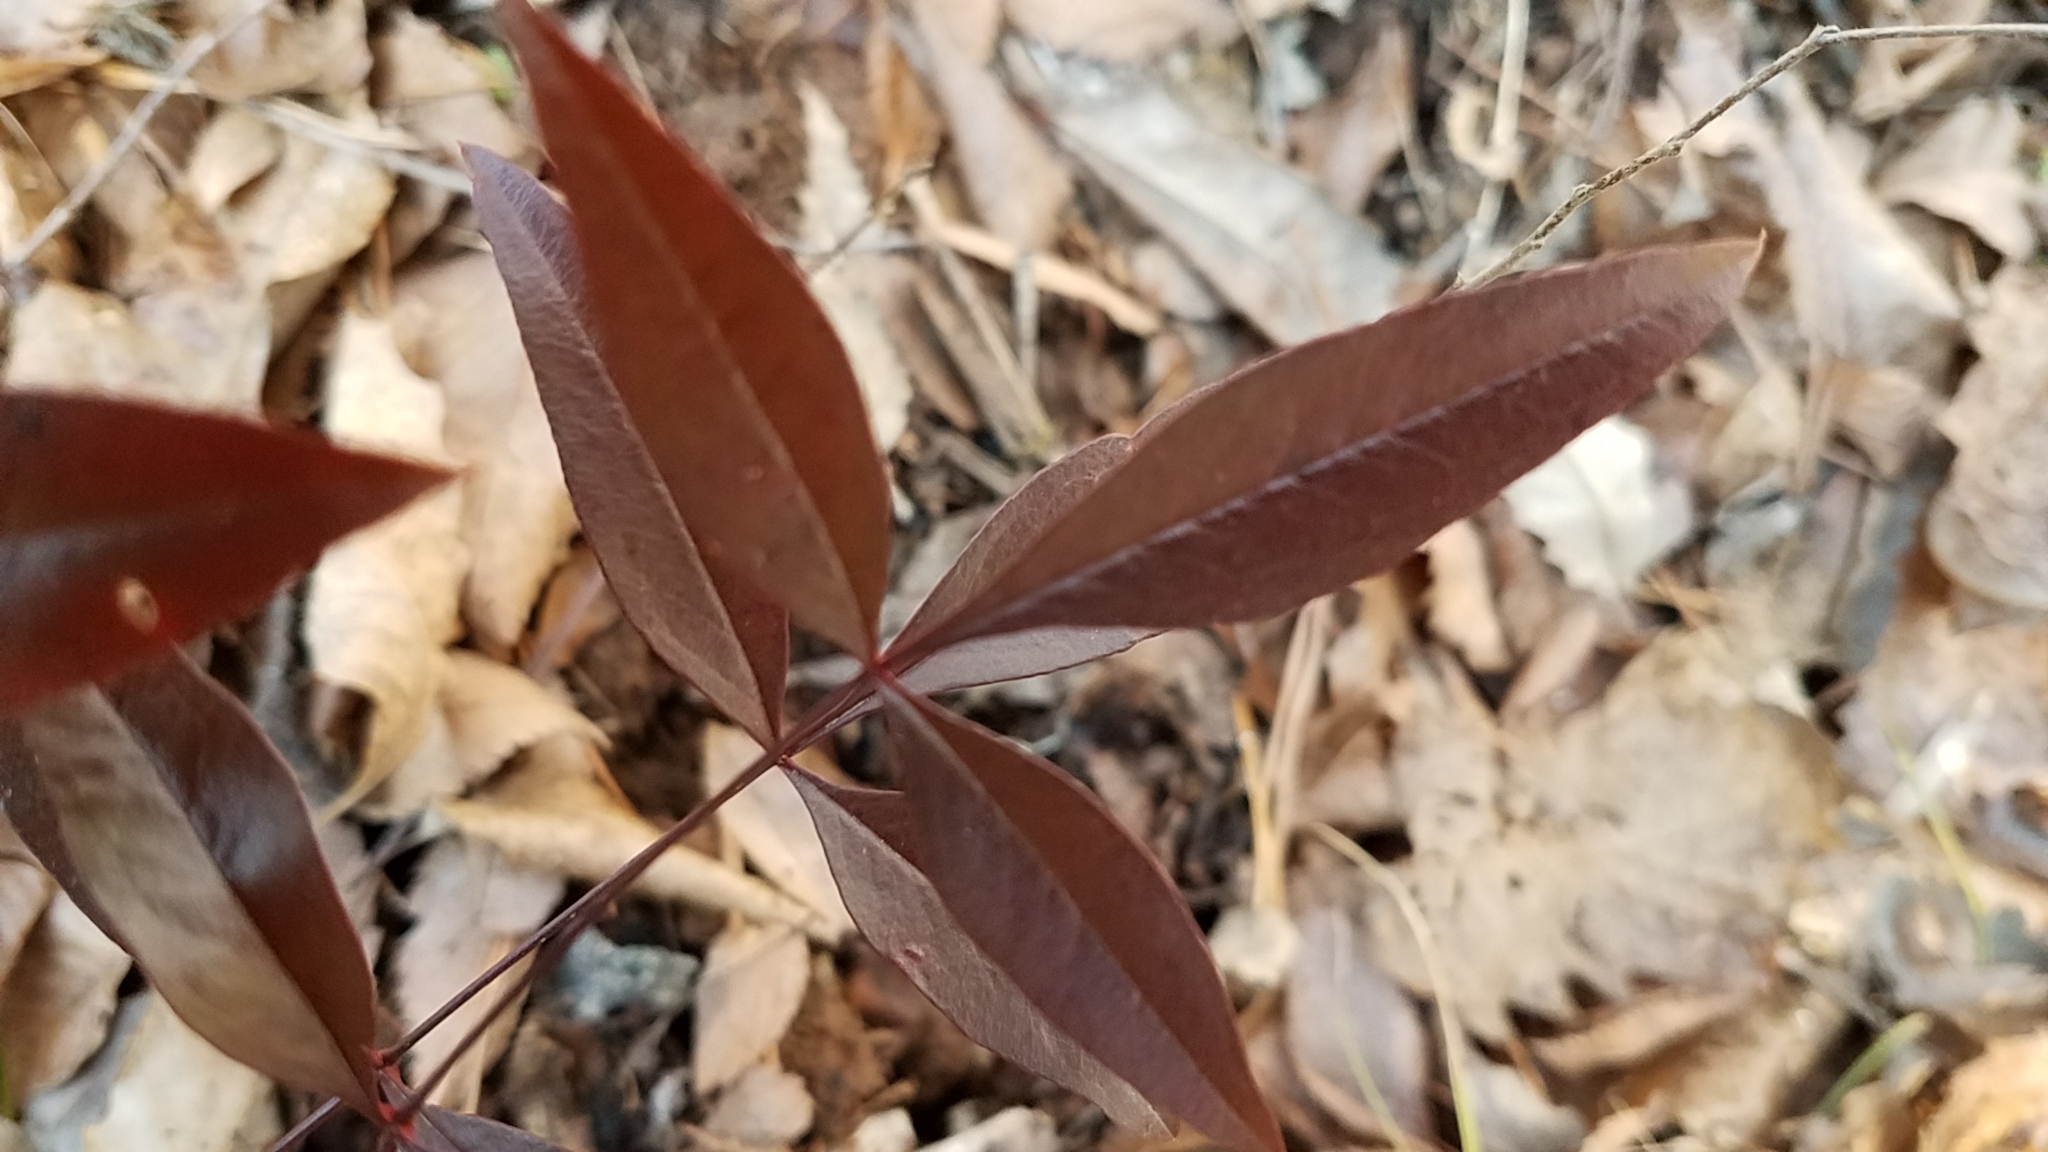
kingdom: Plantae
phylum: Tracheophyta
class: Magnoliopsida
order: Ranunculales
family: Berberidaceae
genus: Nandina
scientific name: Nandina domestica
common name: Sacred bamboo
